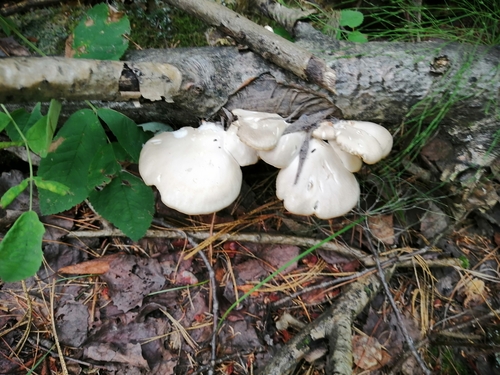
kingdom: Fungi
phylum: Basidiomycota
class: Agaricomycetes
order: Agaricales
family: Pleurotaceae
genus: Pleurotus
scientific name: Pleurotus pulmonarius
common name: Pale oyster
